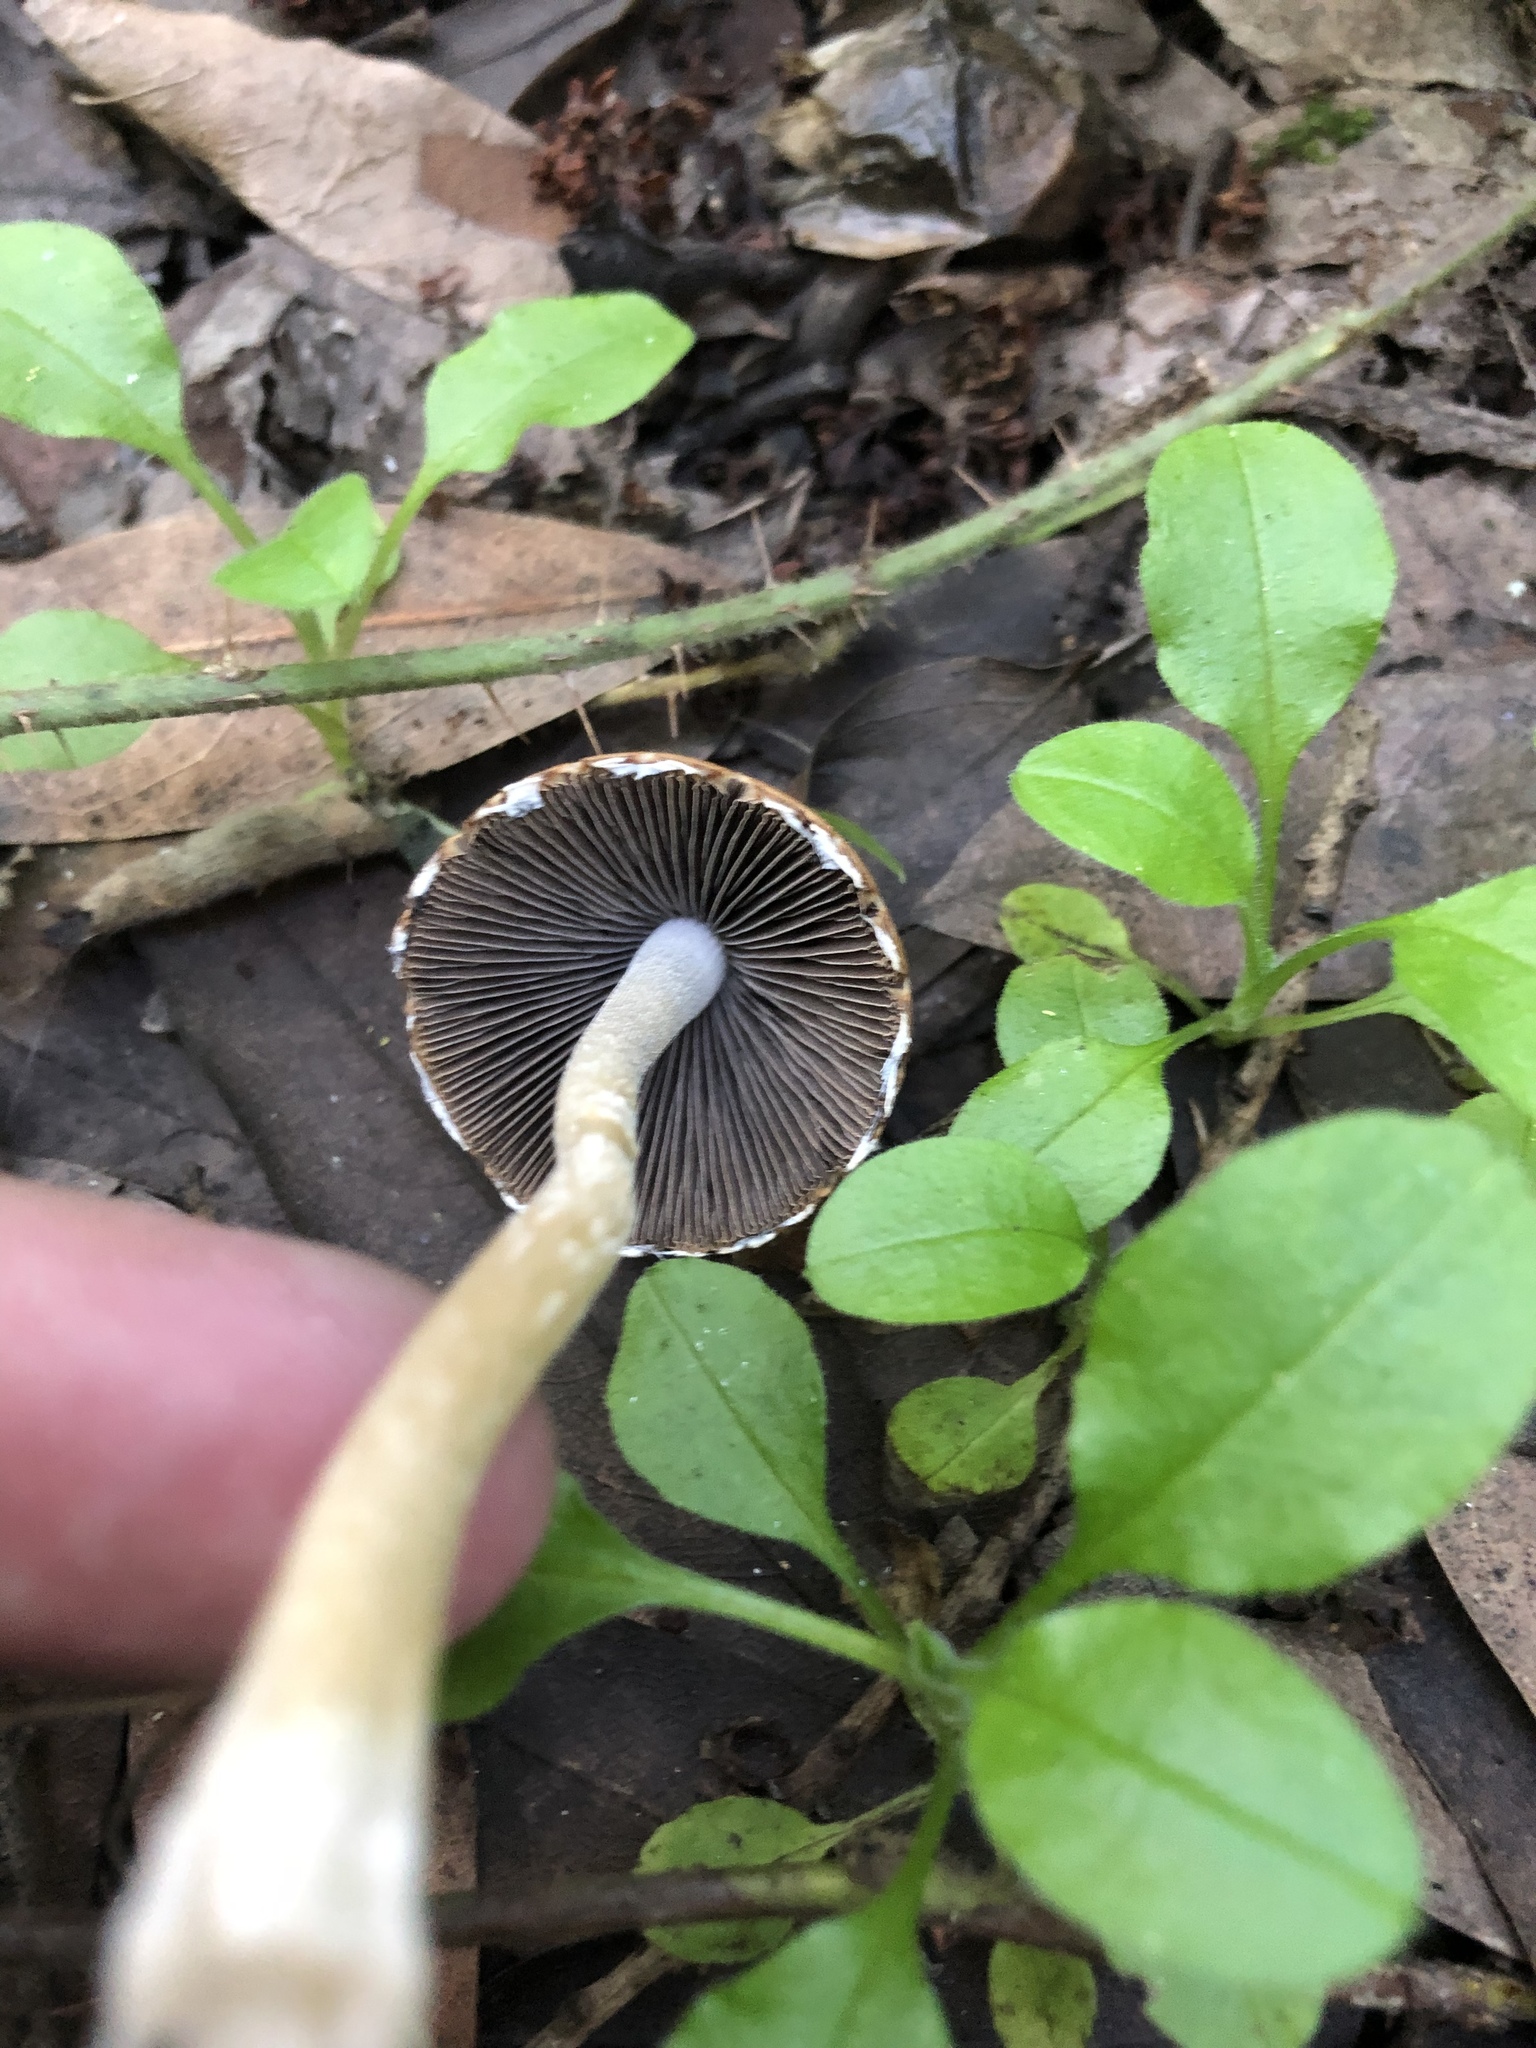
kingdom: Fungi
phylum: Basidiomycota
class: Agaricomycetes
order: Agaricales
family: Psathyrellaceae
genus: Psathyrella
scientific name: Psathyrella longipes
